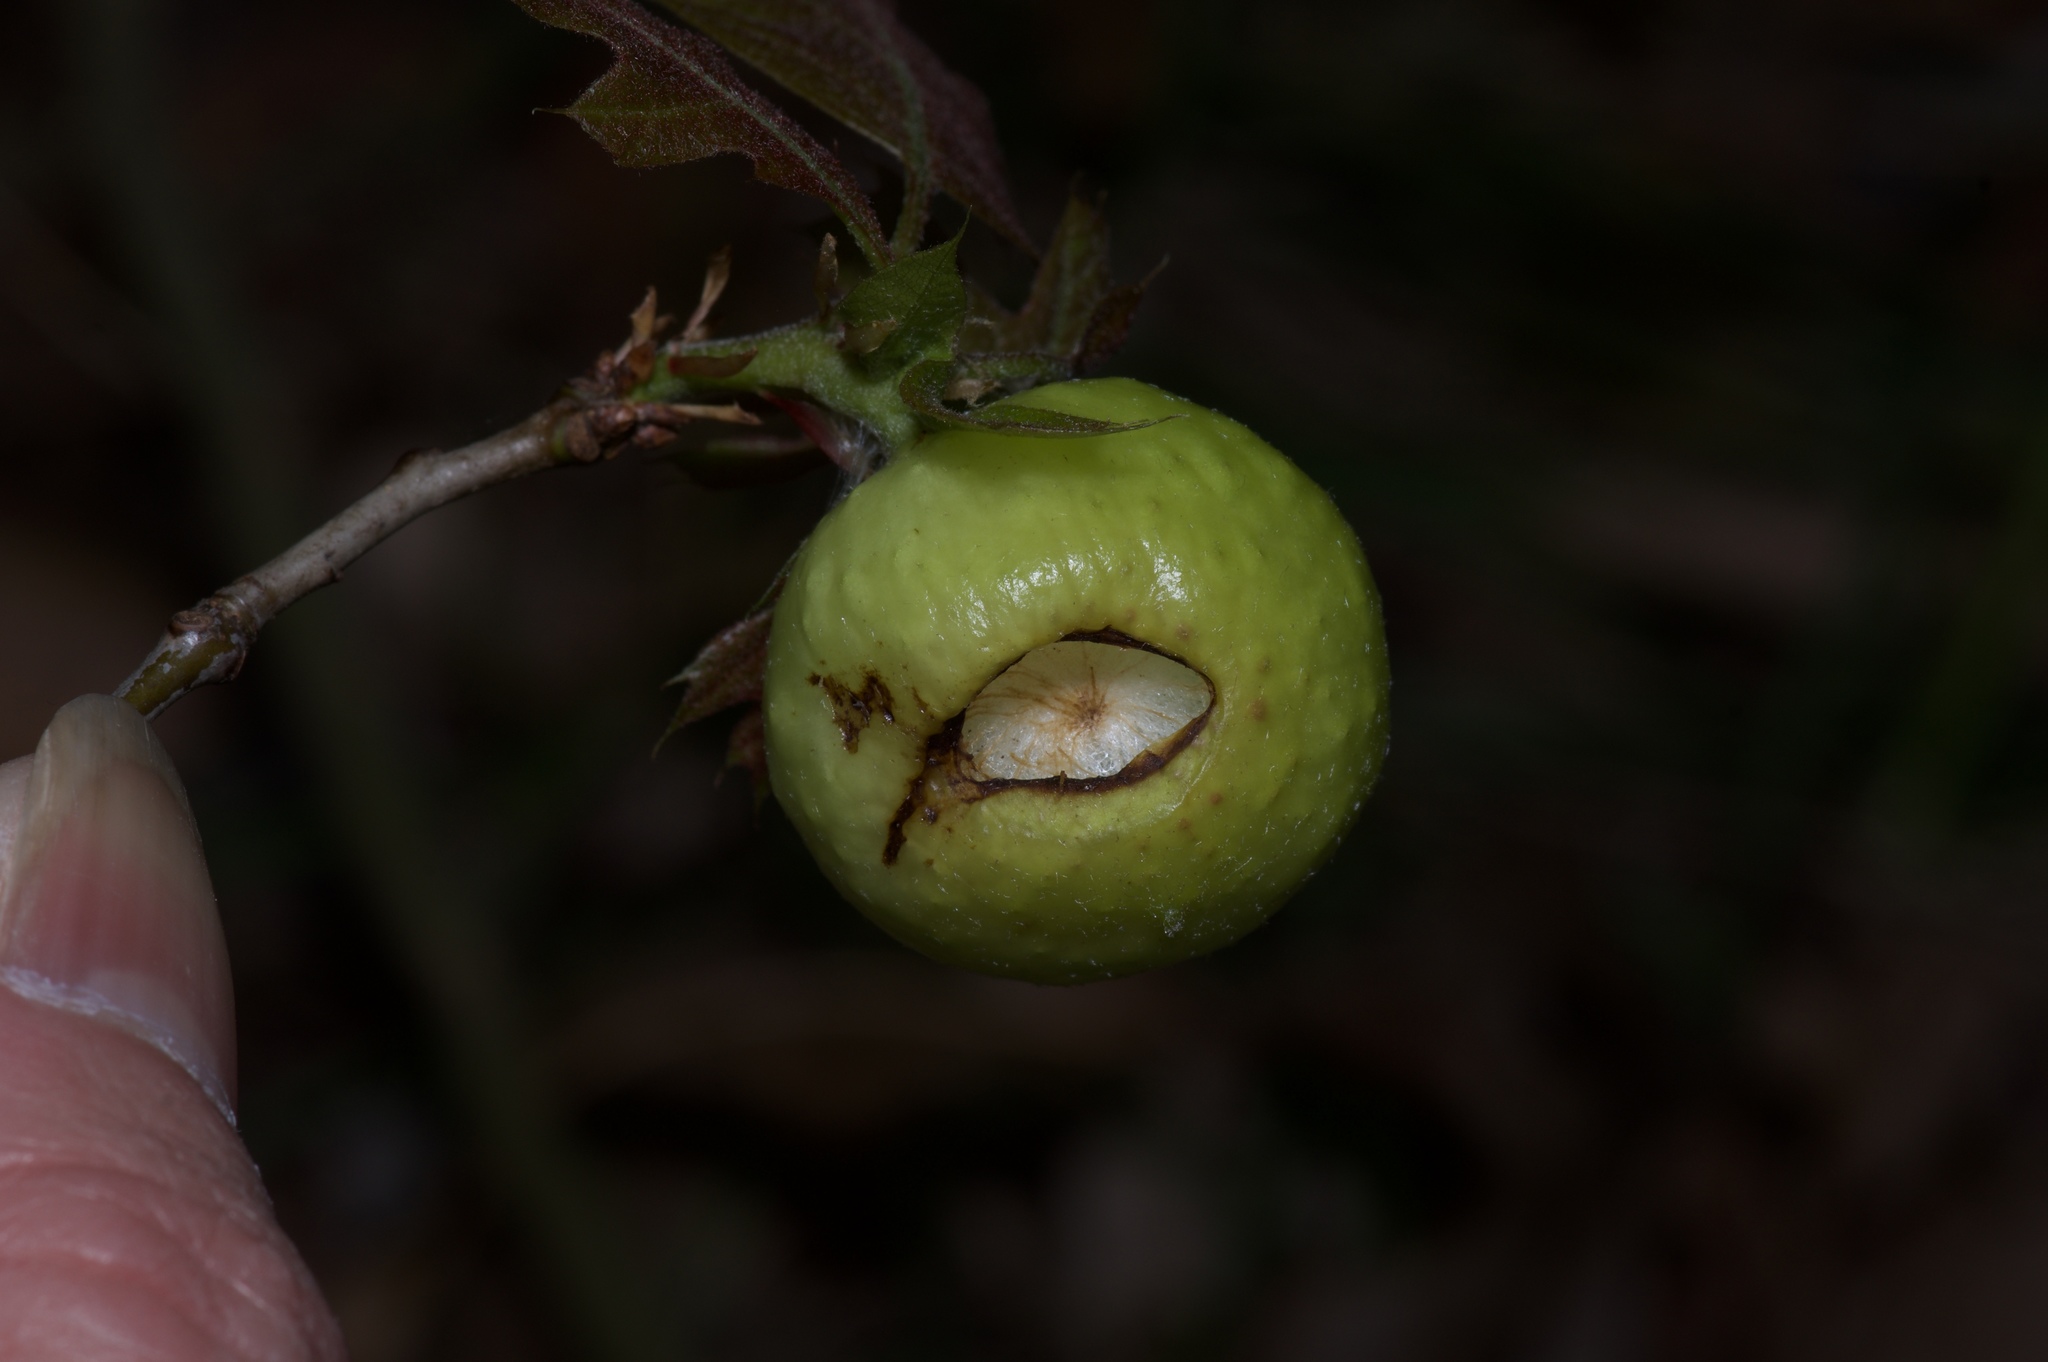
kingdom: Animalia
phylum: Arthropoda
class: Insecta
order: Hymenoptera
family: Cynipidae
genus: Amphibolips
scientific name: Amphibolips
